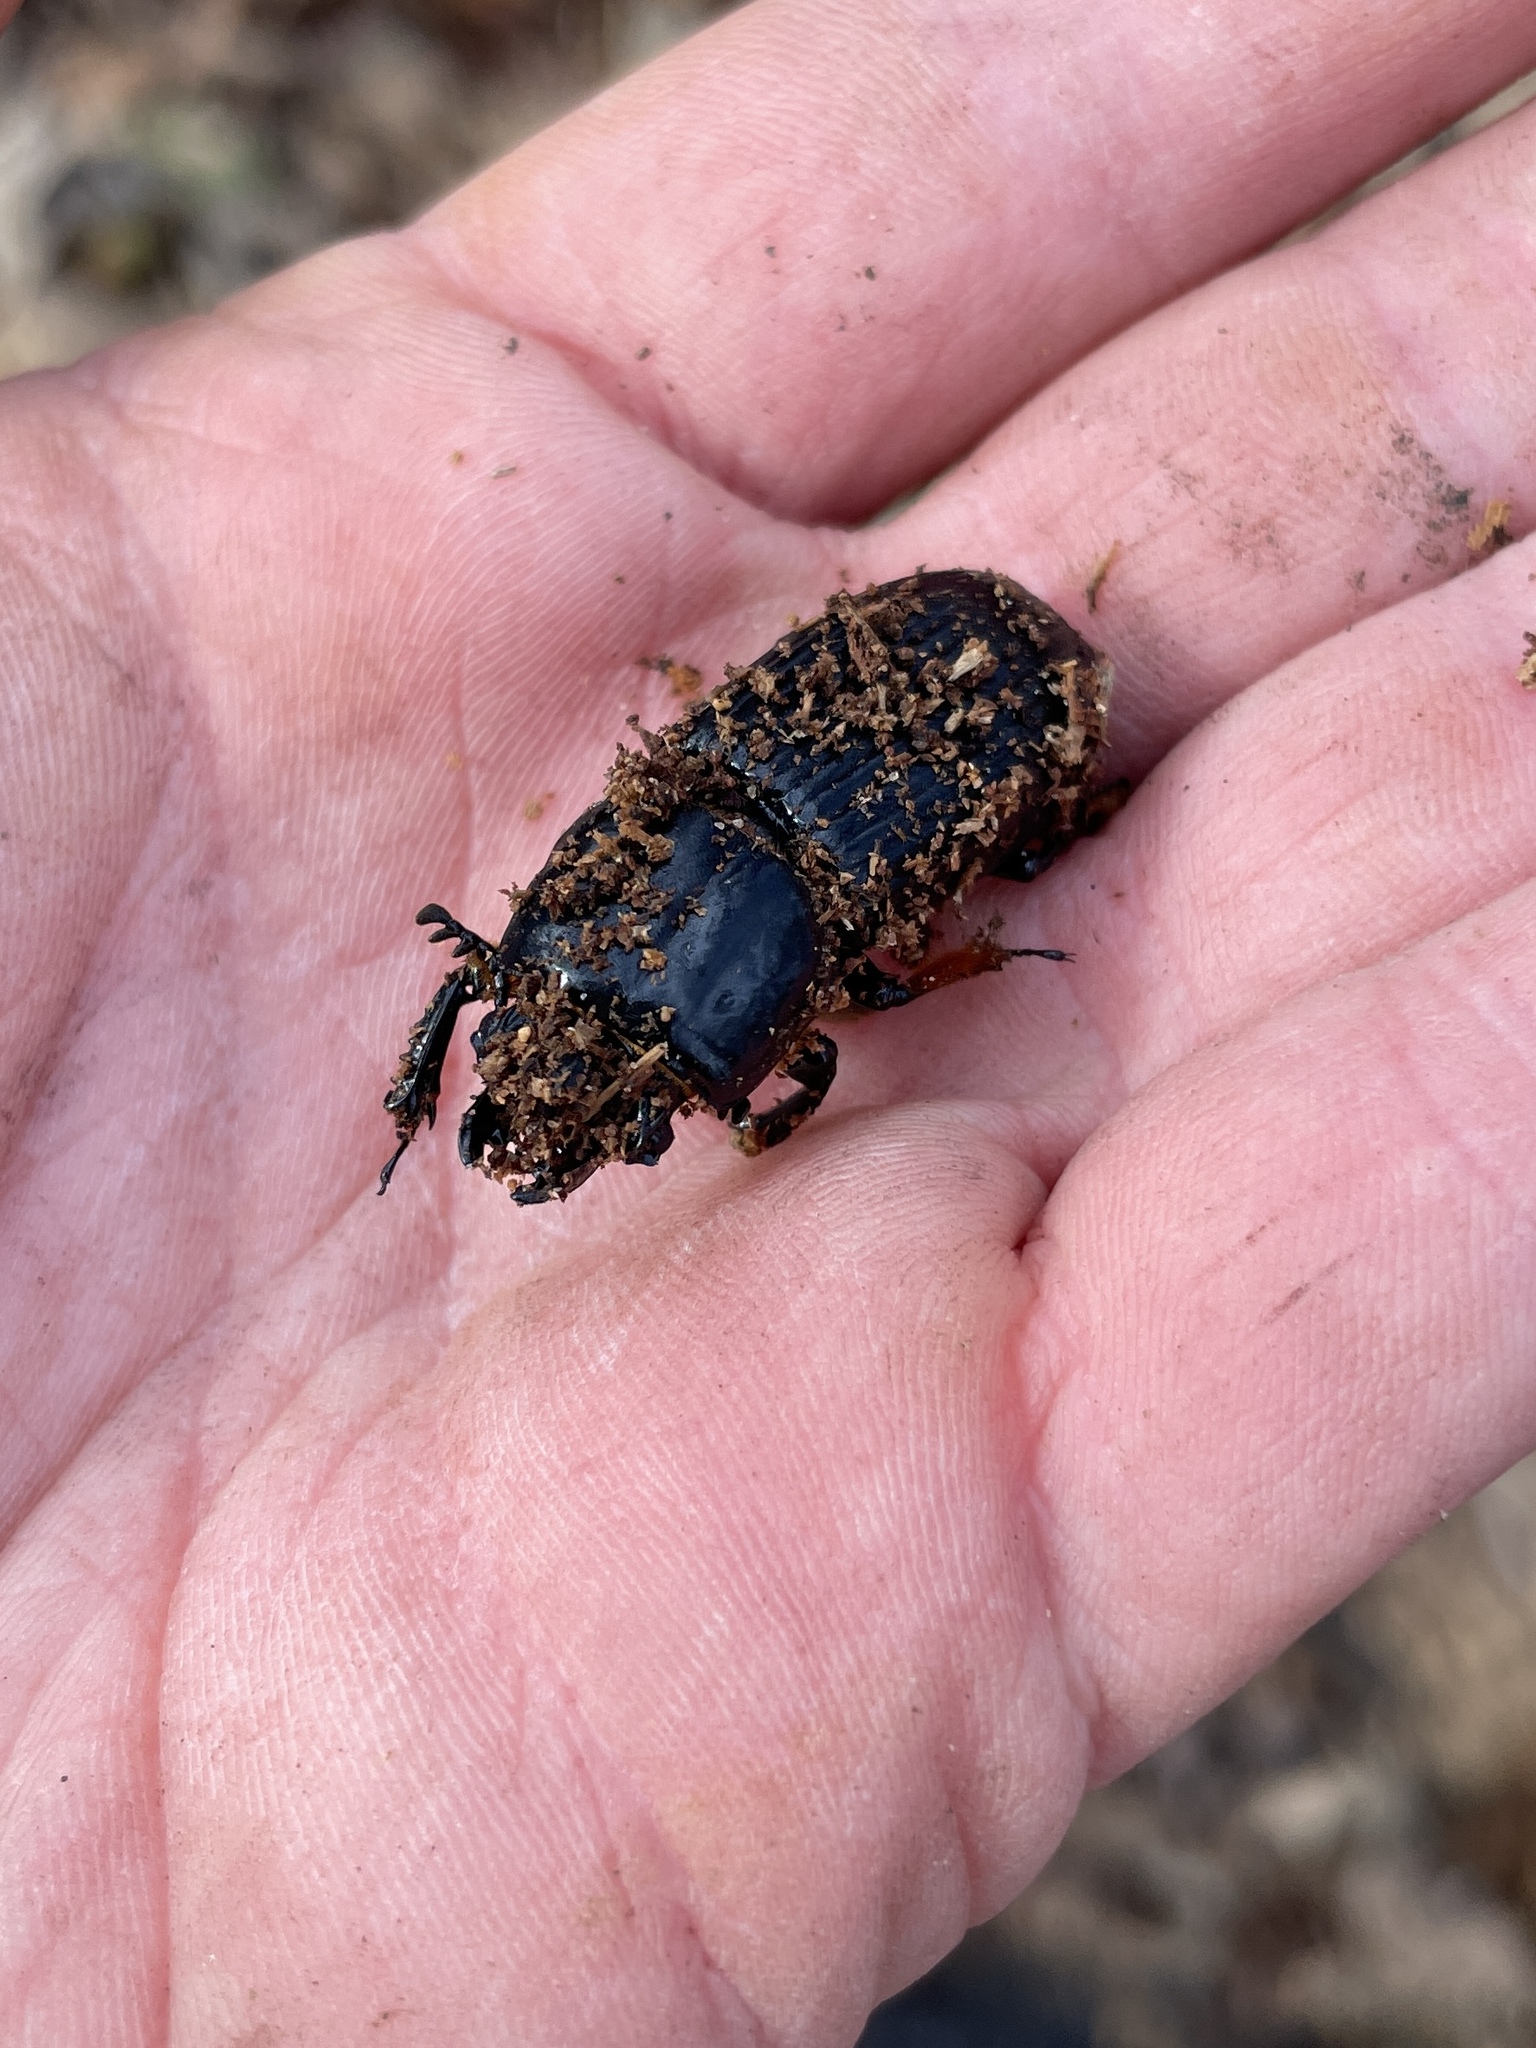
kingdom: Animalia
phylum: Arthropoda
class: Insecta
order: Coleoptera
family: Passalidae
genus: Odontotaenius
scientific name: Odontotaenius disjunctus
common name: Patent leather beetle
